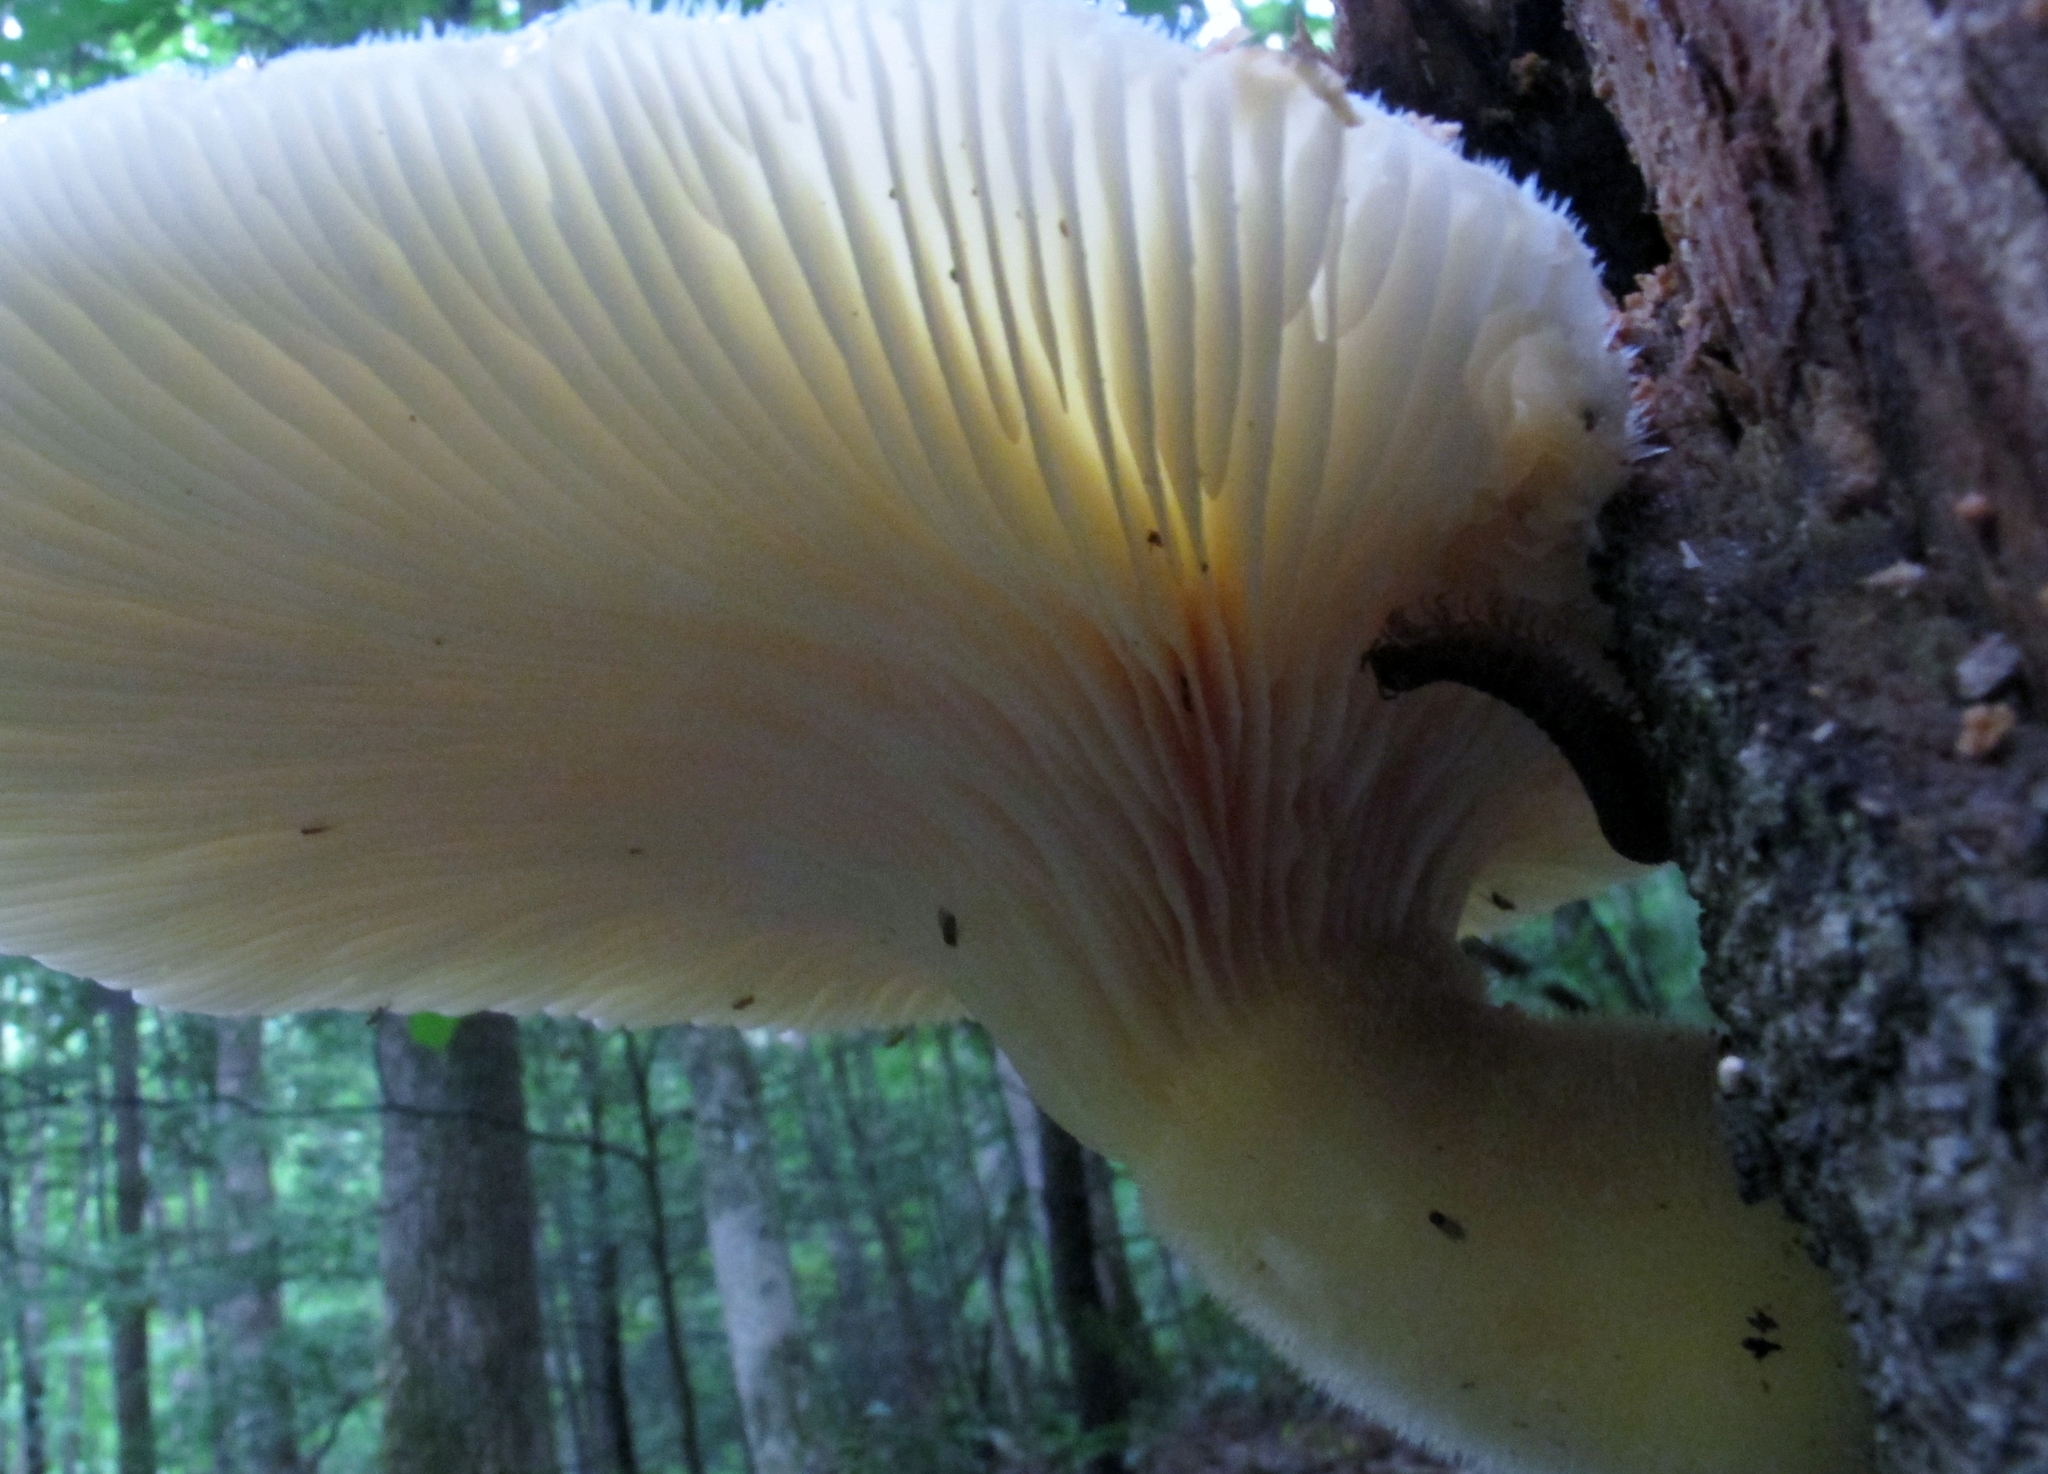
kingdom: Fungi
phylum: Basidiomycota
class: Agaricomycetes
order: Polyporales
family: Polyporaceae
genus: Lentinus
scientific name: Lentinus levis
